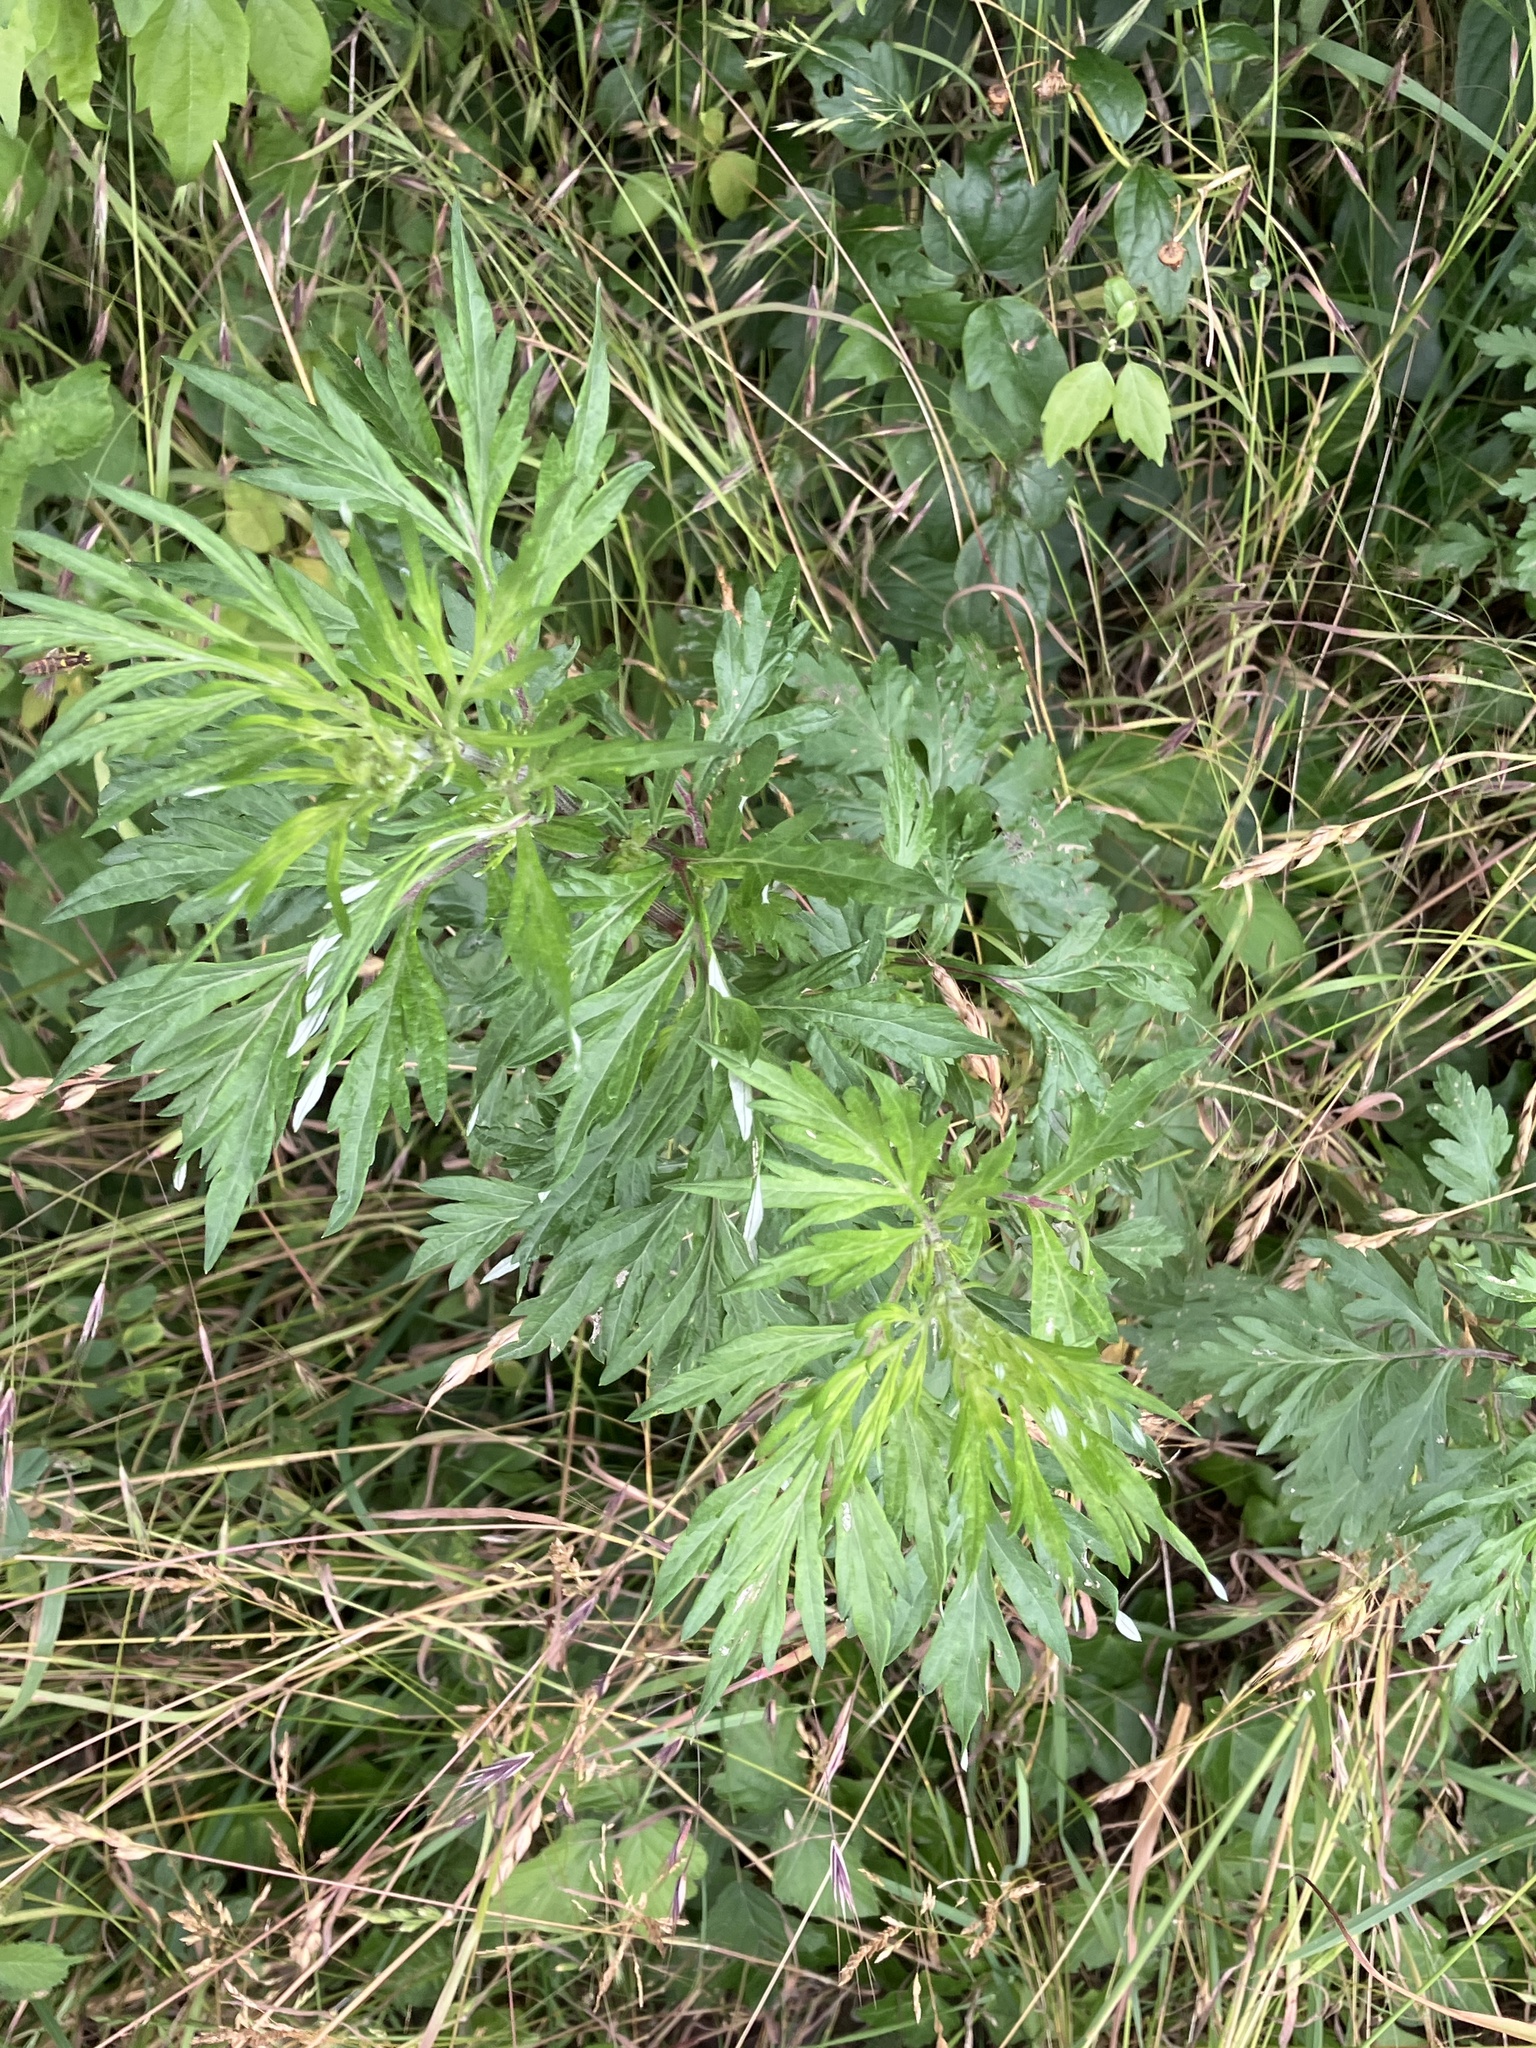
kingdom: Plantae
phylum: Tracheophyta
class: Magnoliopsida
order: Asterales
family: Asteraceae
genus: Artemisia
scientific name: Artemisia vulgaris
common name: Mugwort
